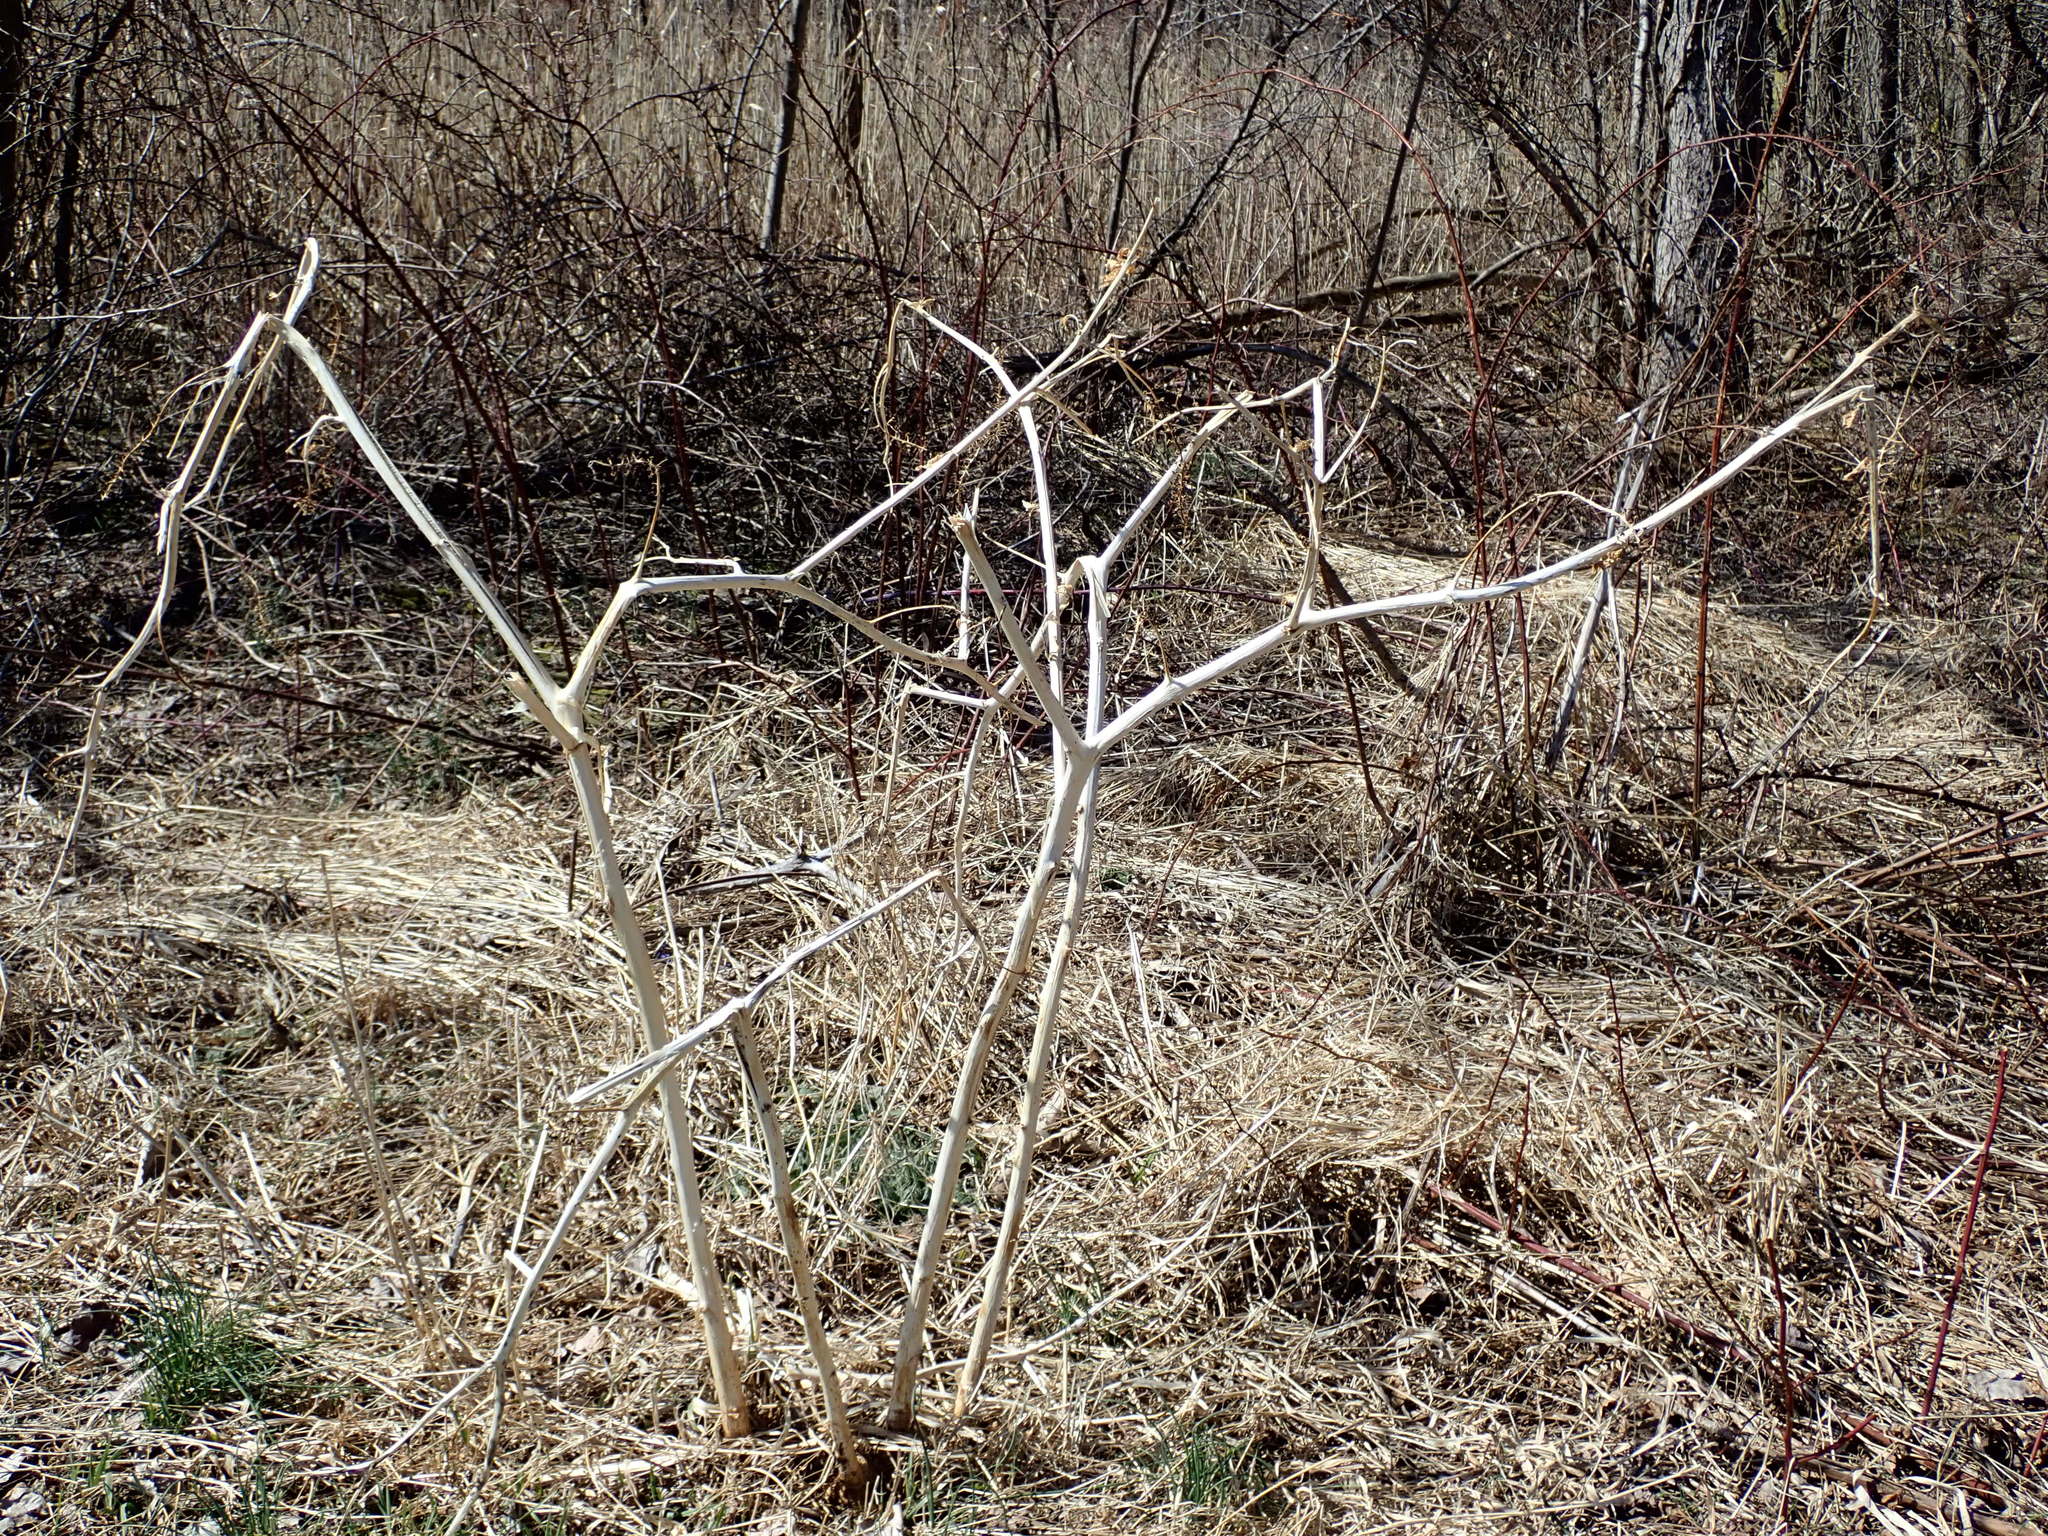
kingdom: Plantae
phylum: Tracheophyta
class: Magnoliopsida
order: Caryophyllales
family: Phytolaccaceae
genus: Phytolacca
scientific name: Phytolacca americana
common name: American pokeweed
